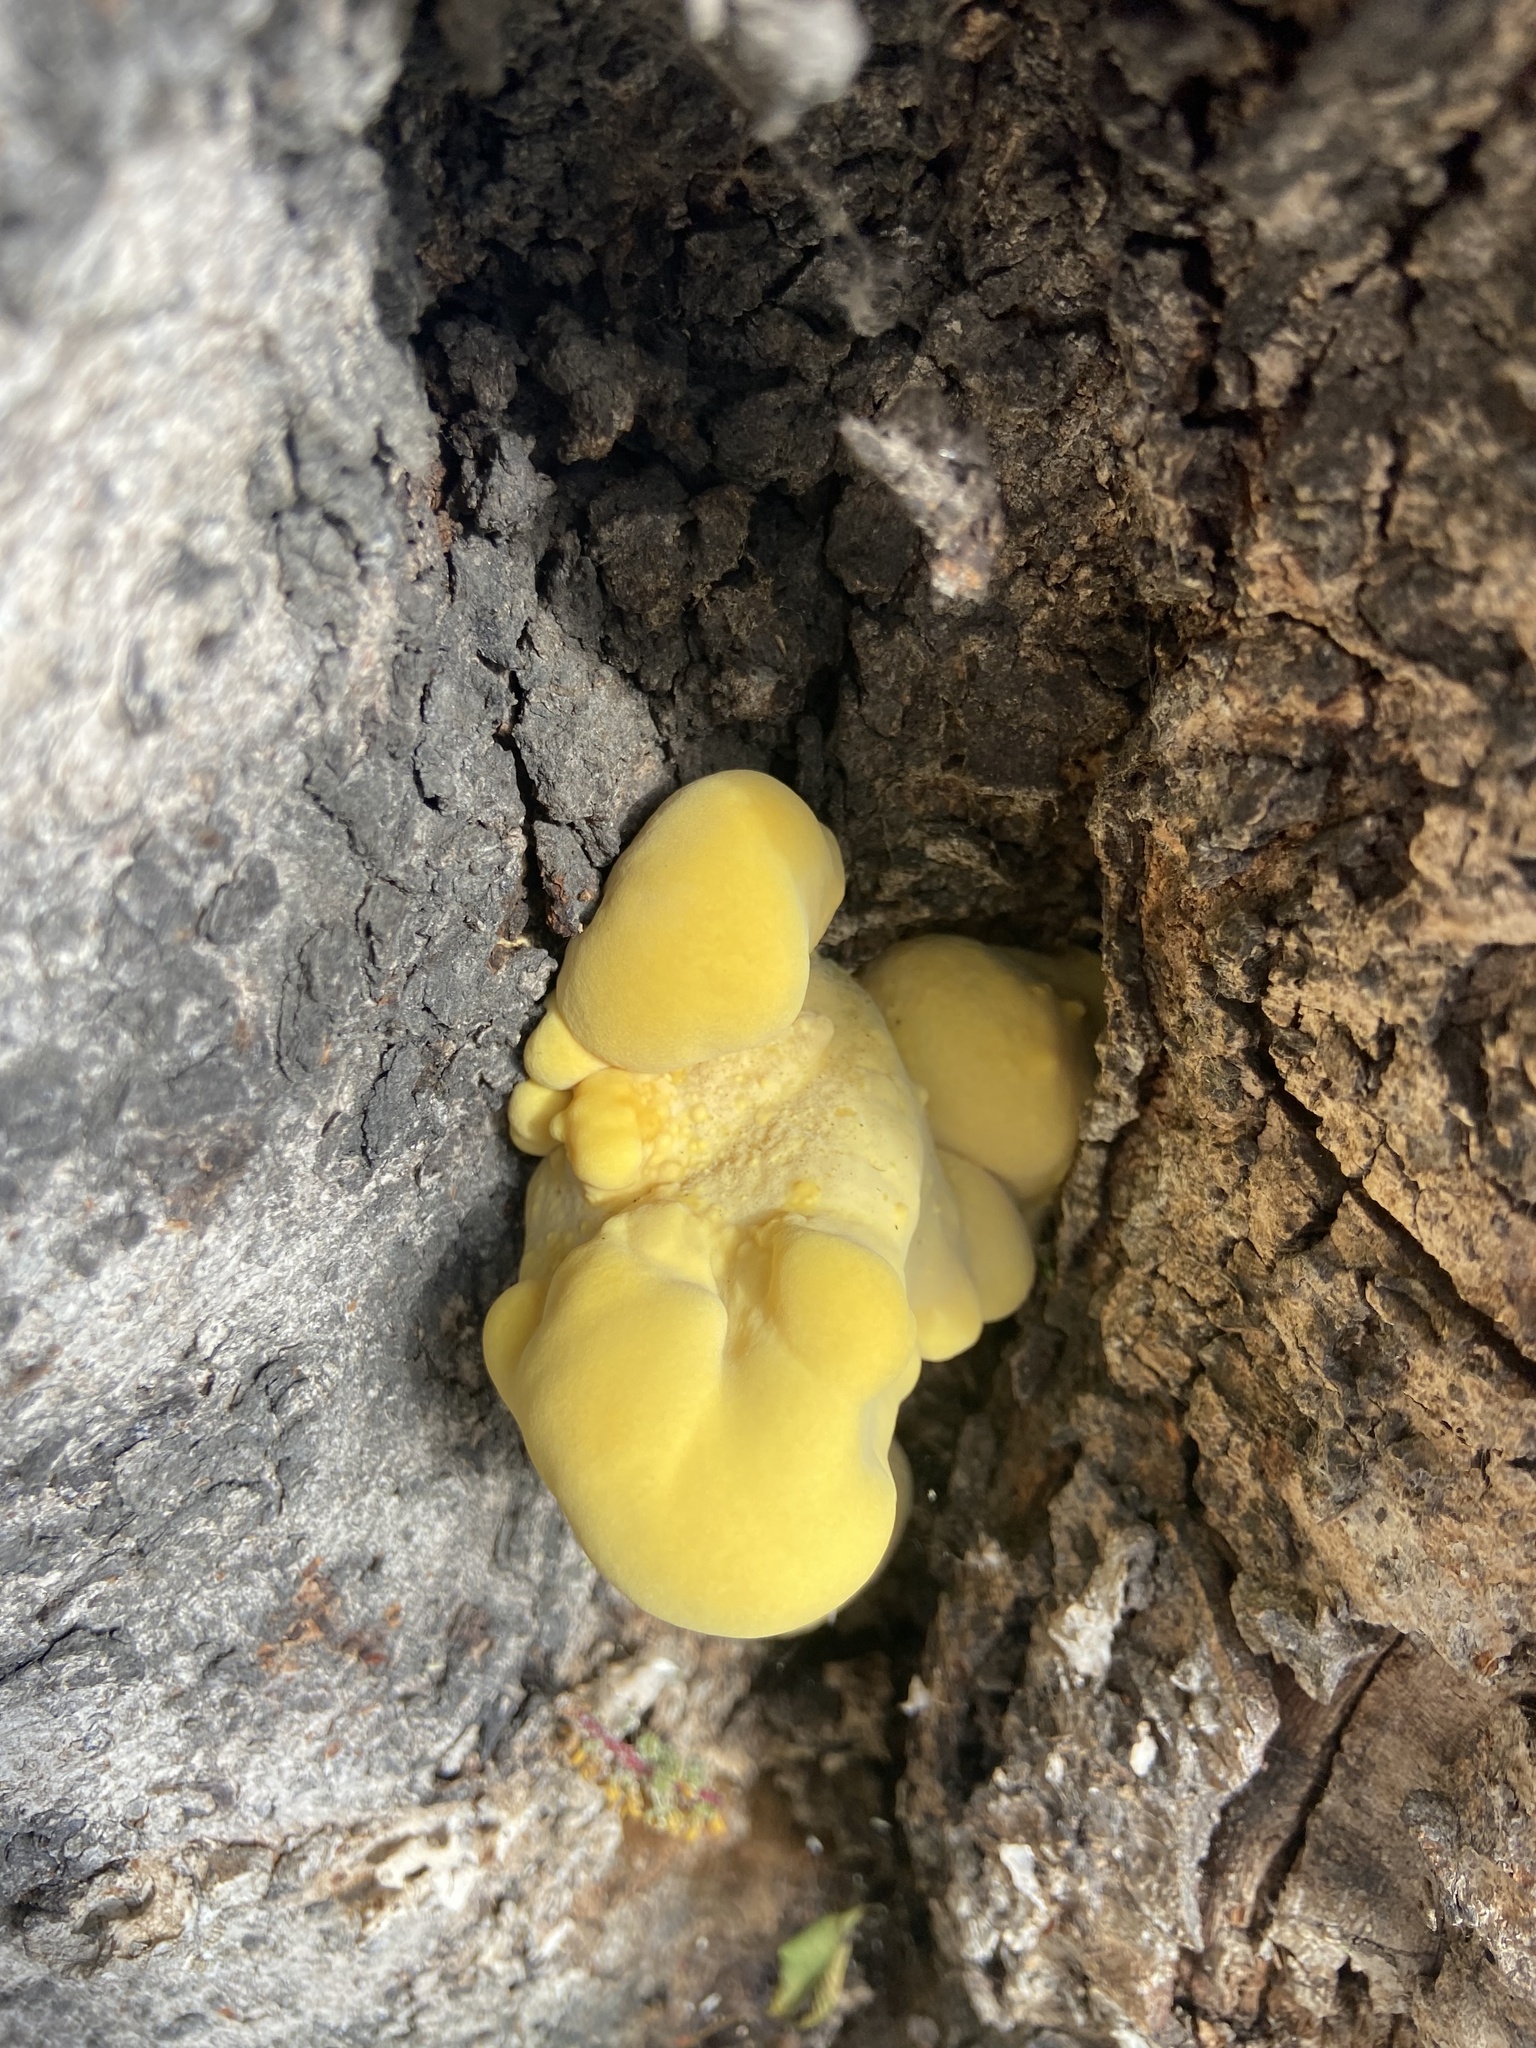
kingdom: Fungi
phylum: Basidiomycota
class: Agaricomycetes
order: Polyporales
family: Laetiporaceae
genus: Laetiporus
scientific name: Laetiporus gilbertsonii
